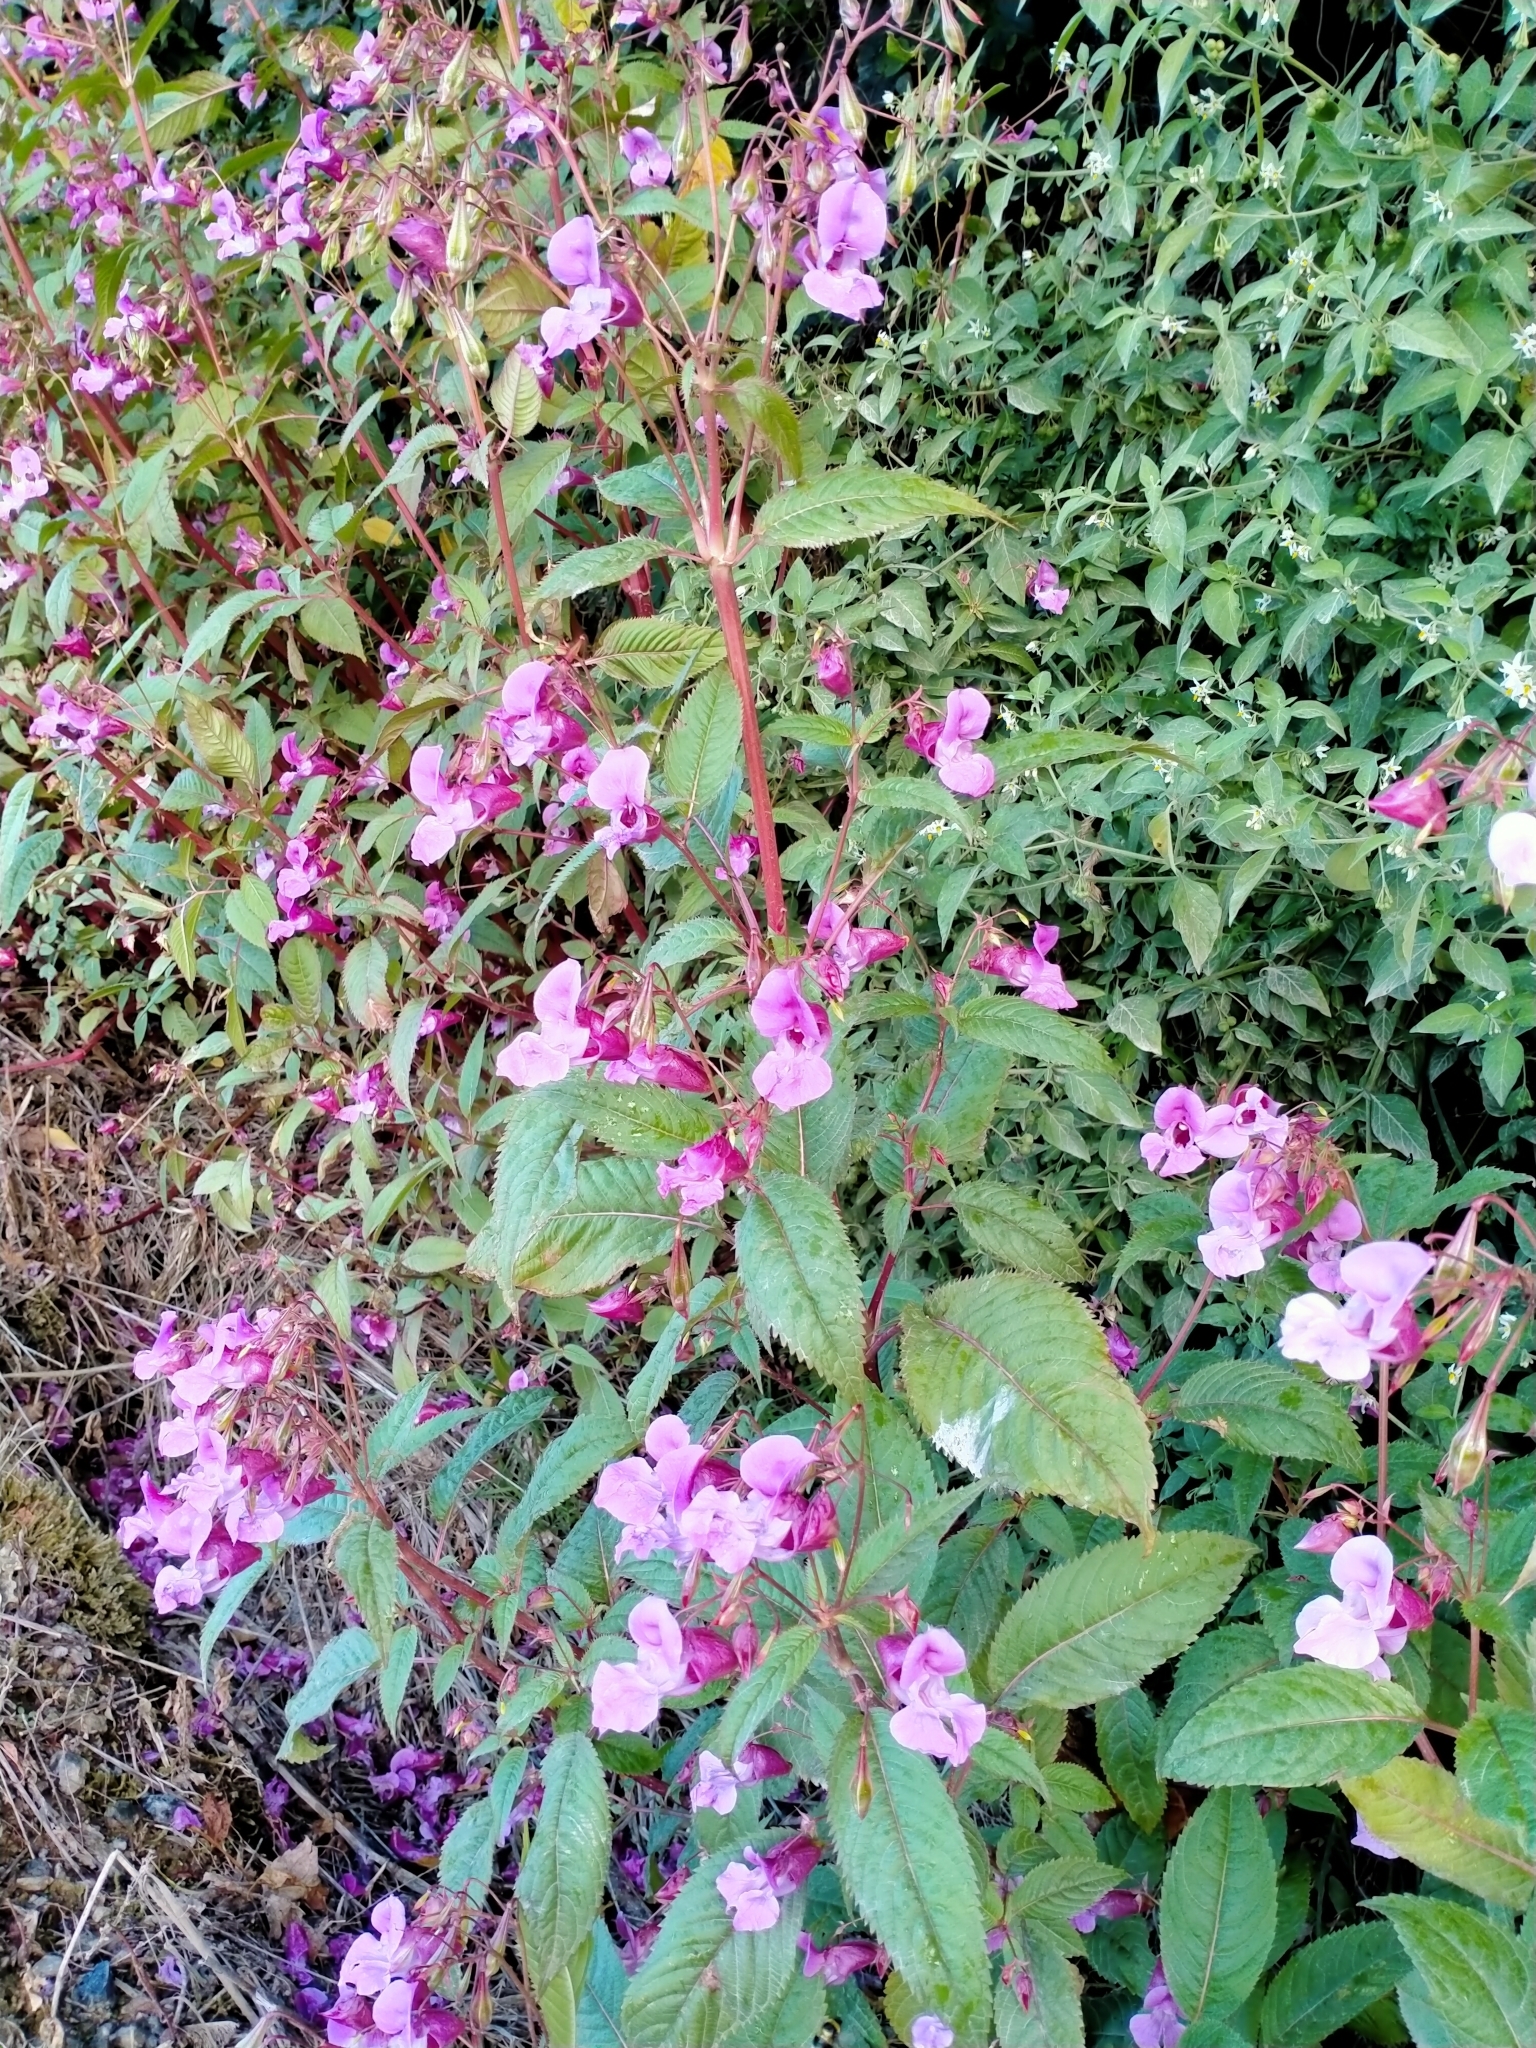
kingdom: Plantae
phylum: Tracheophyta
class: Magnoliopsida
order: Ericales
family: Balsaminaceae
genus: Impatiens
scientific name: Impatiens glandulifera
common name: Himalayan balsam
